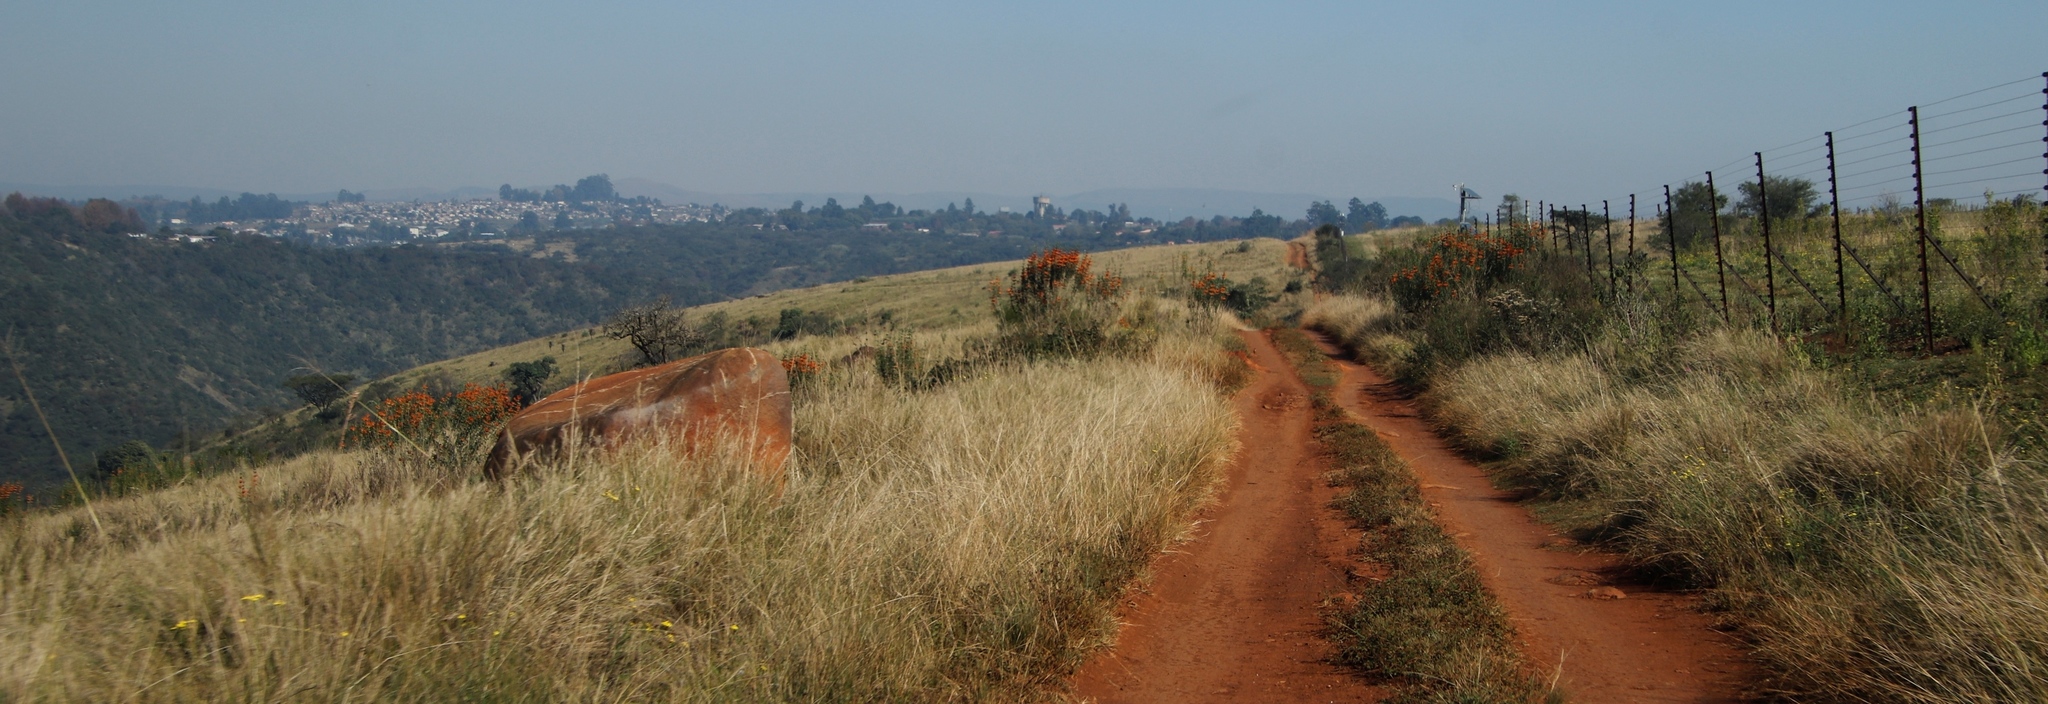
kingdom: Plantae
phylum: Tracheophyta
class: Magnoliopsida
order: Lamiales
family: Lamiaceae
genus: Leonotis
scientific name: Leonotis leonurus
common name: Lion's ear
